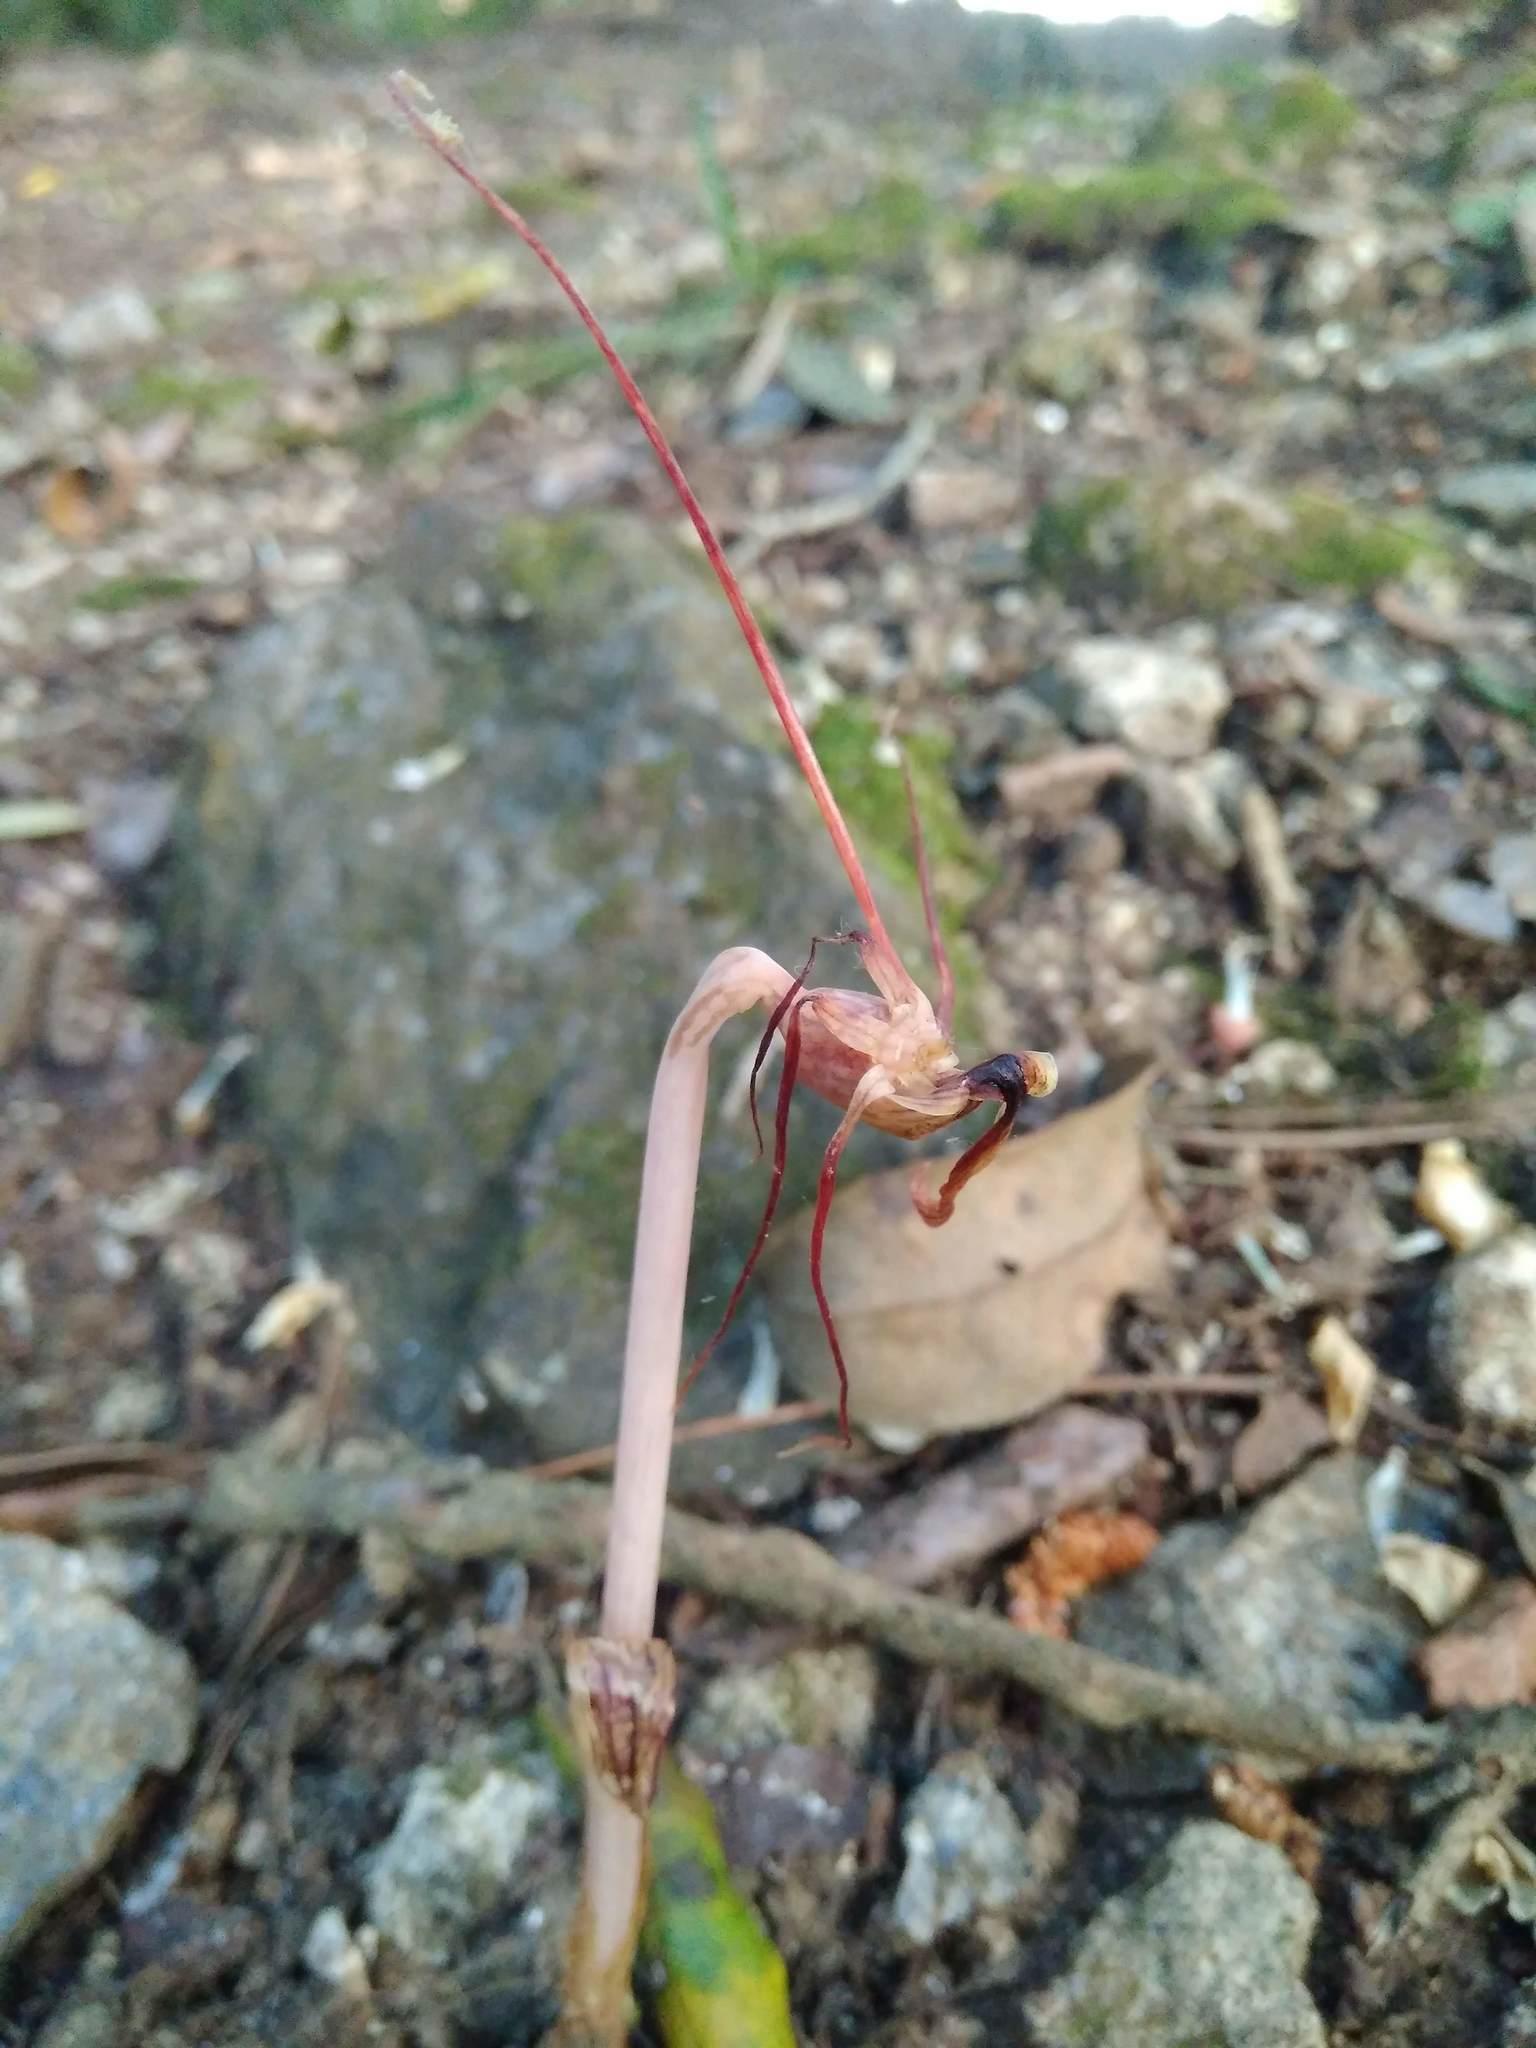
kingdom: Plantae
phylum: Tracheophyta
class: Liliopsida
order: Liliales
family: Corsiaceae
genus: Arachnitis
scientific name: Arachnitis uniflora
